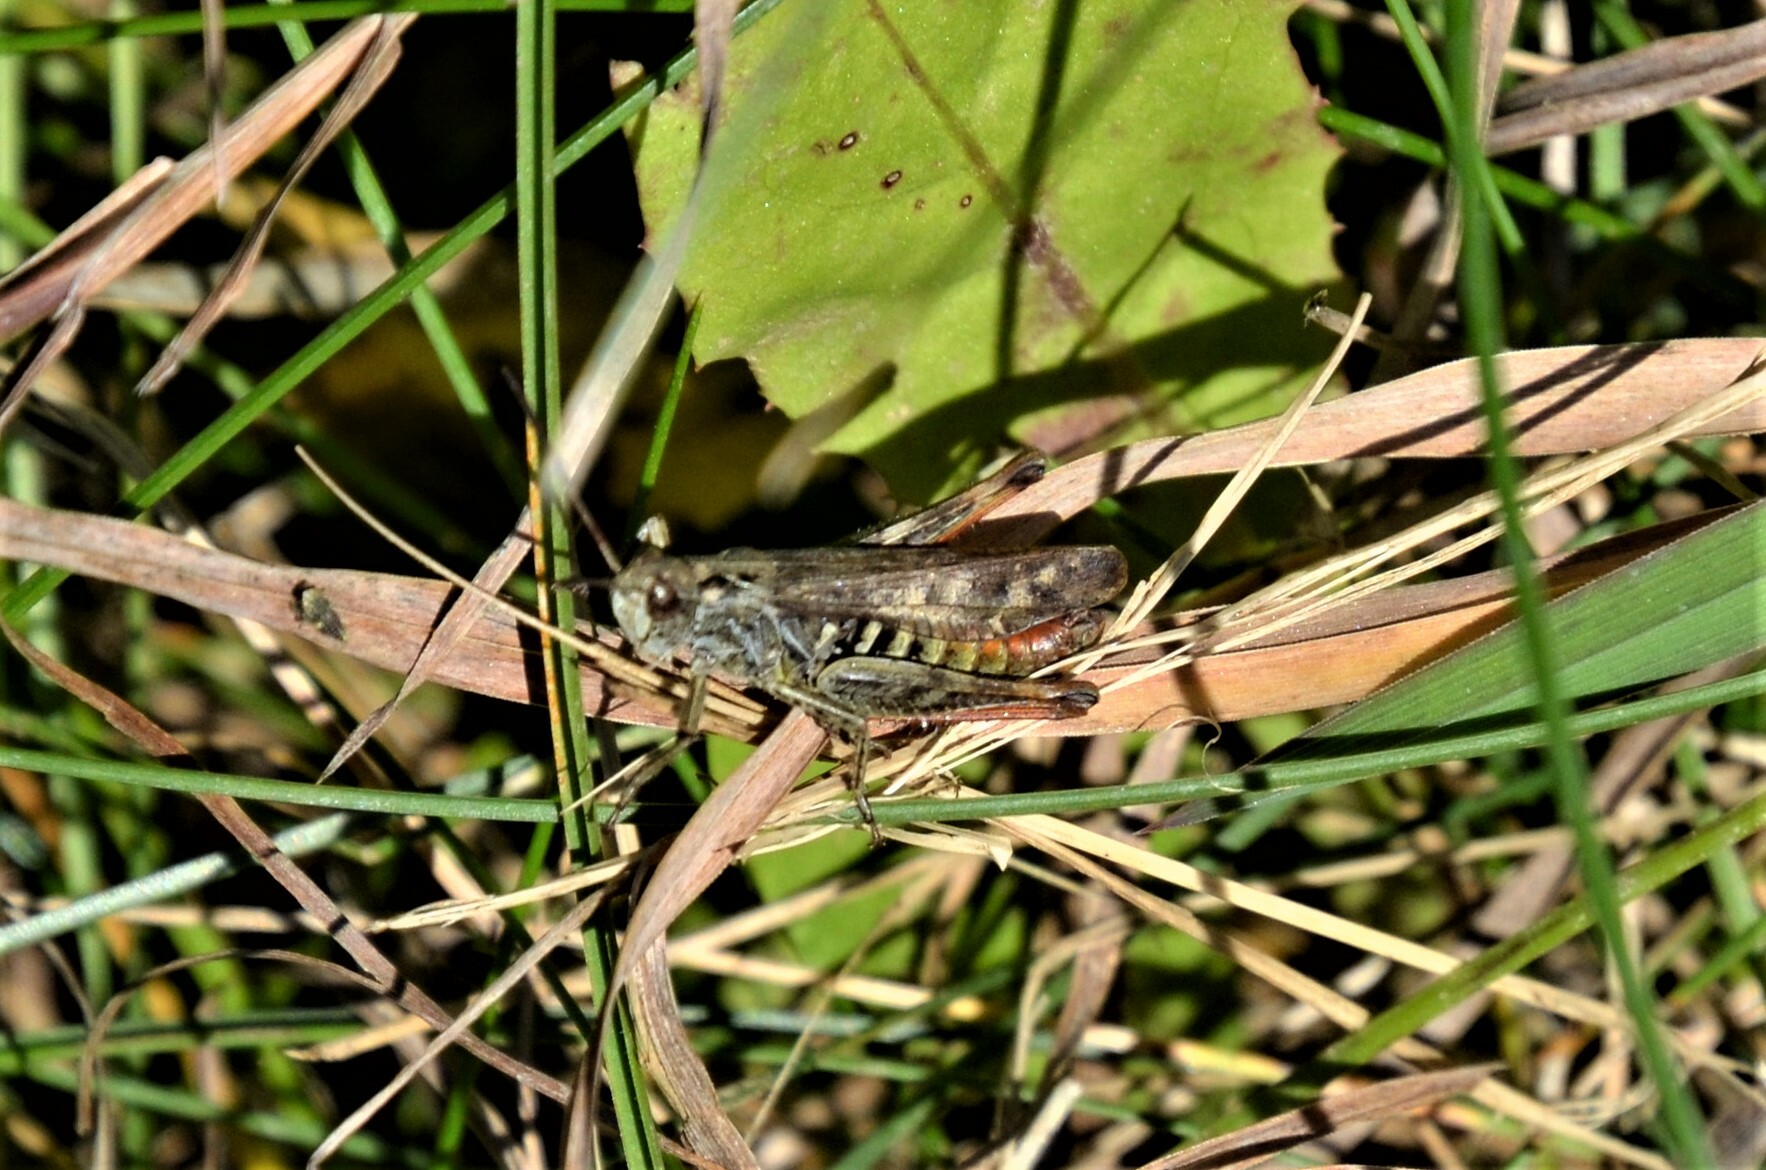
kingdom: Animalia
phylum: Arthropoda
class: Insecta
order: Orthoptera
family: Acrididae
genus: Chorthippus
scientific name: Chorthippus biguttulus
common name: Bow-winged grasshopper
